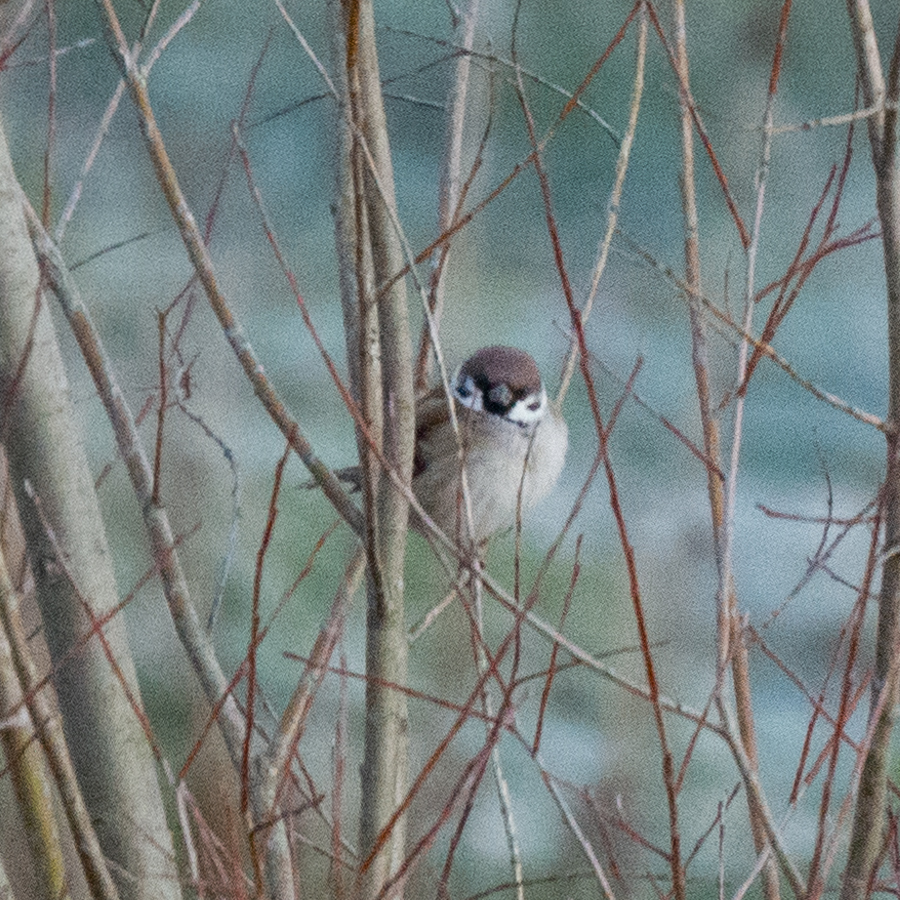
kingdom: Animalia
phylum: Chordata
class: Aves
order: Passeriformes
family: Passeridae
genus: Passer
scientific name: Passer montanus
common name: Eurasian tree sparrow
